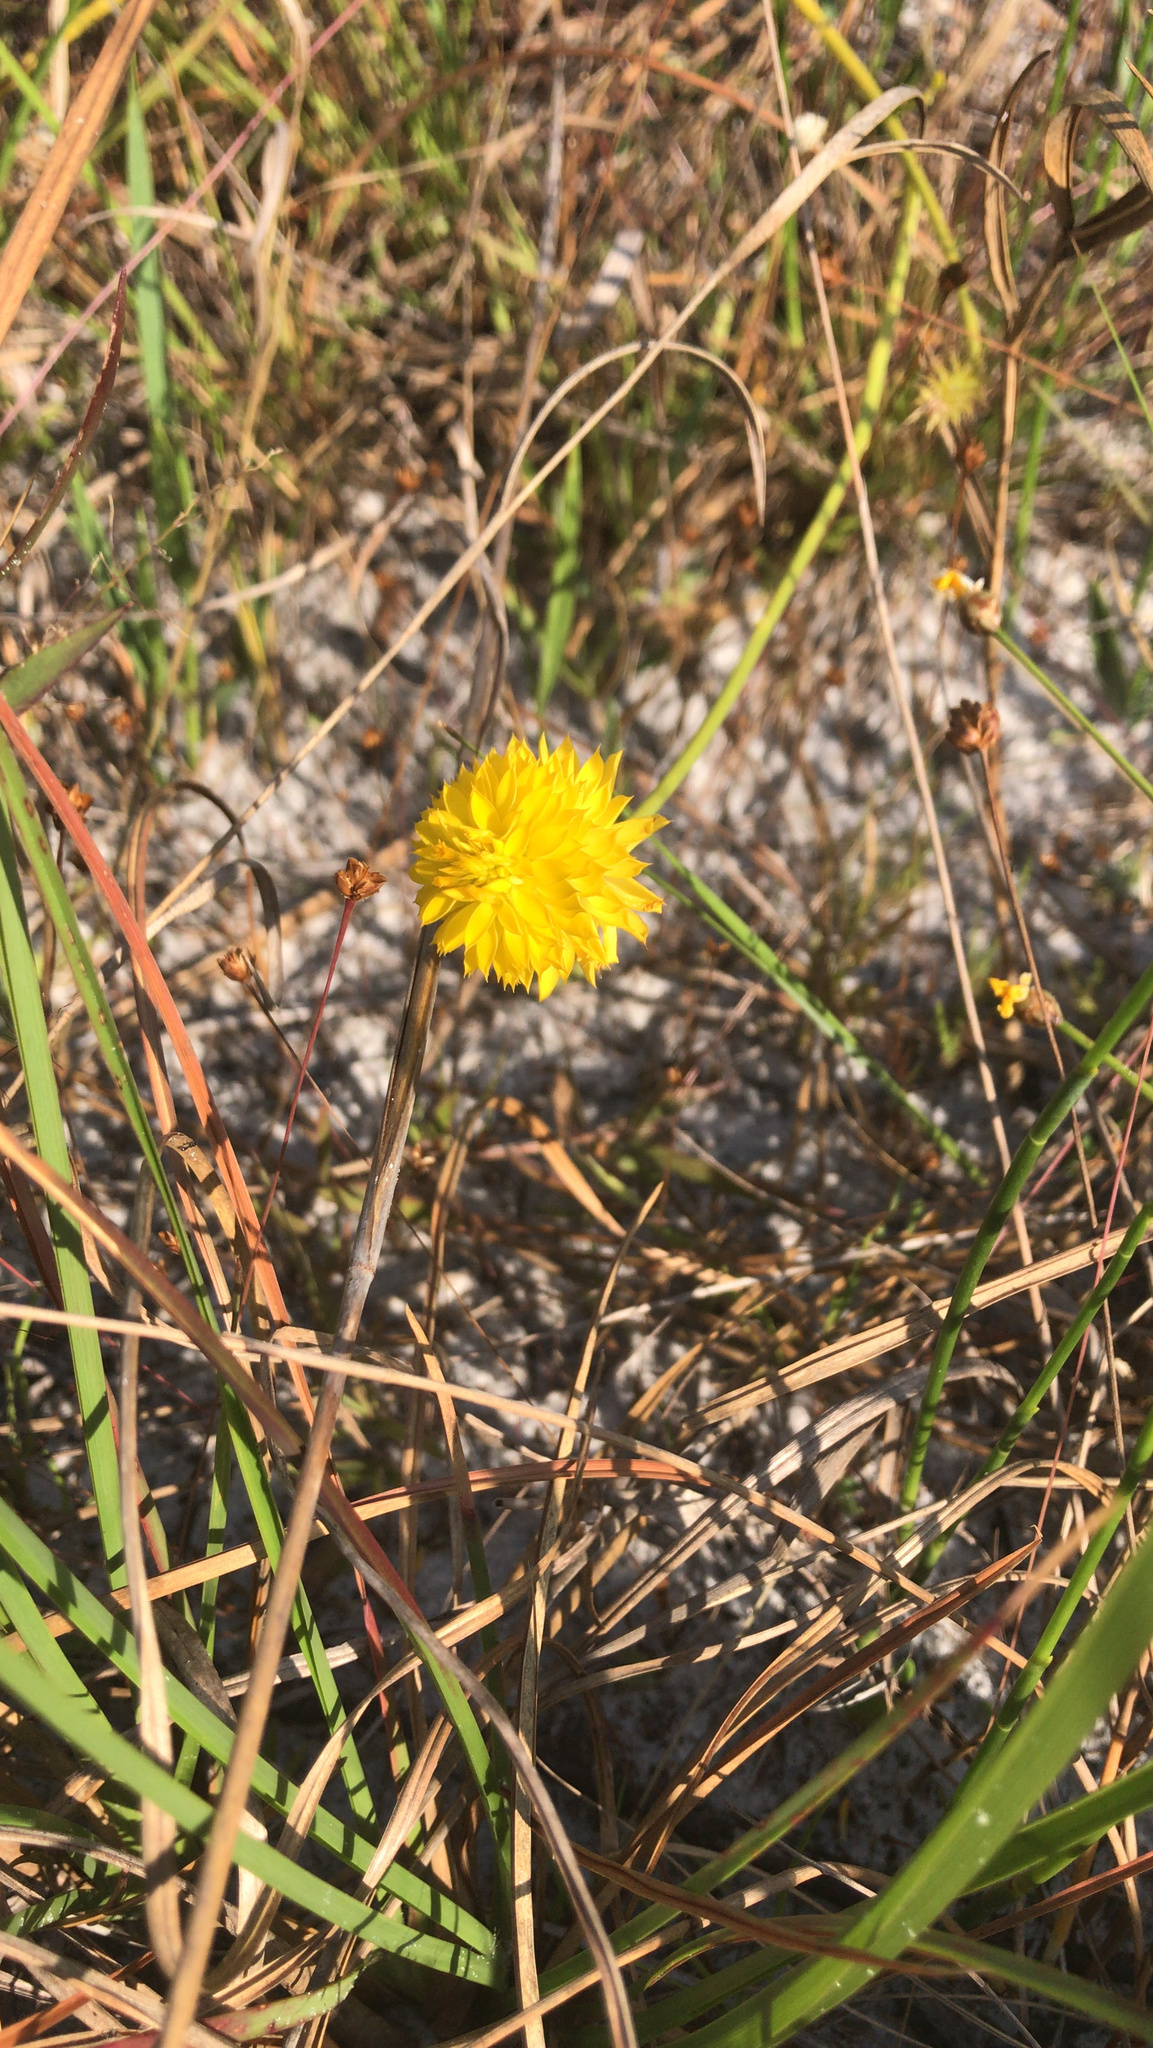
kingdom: Plantae
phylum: Tracheophyta
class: Magnoliopsida
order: Fabales
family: Polygalaceae
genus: Polygala
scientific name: Polygala rugelii
